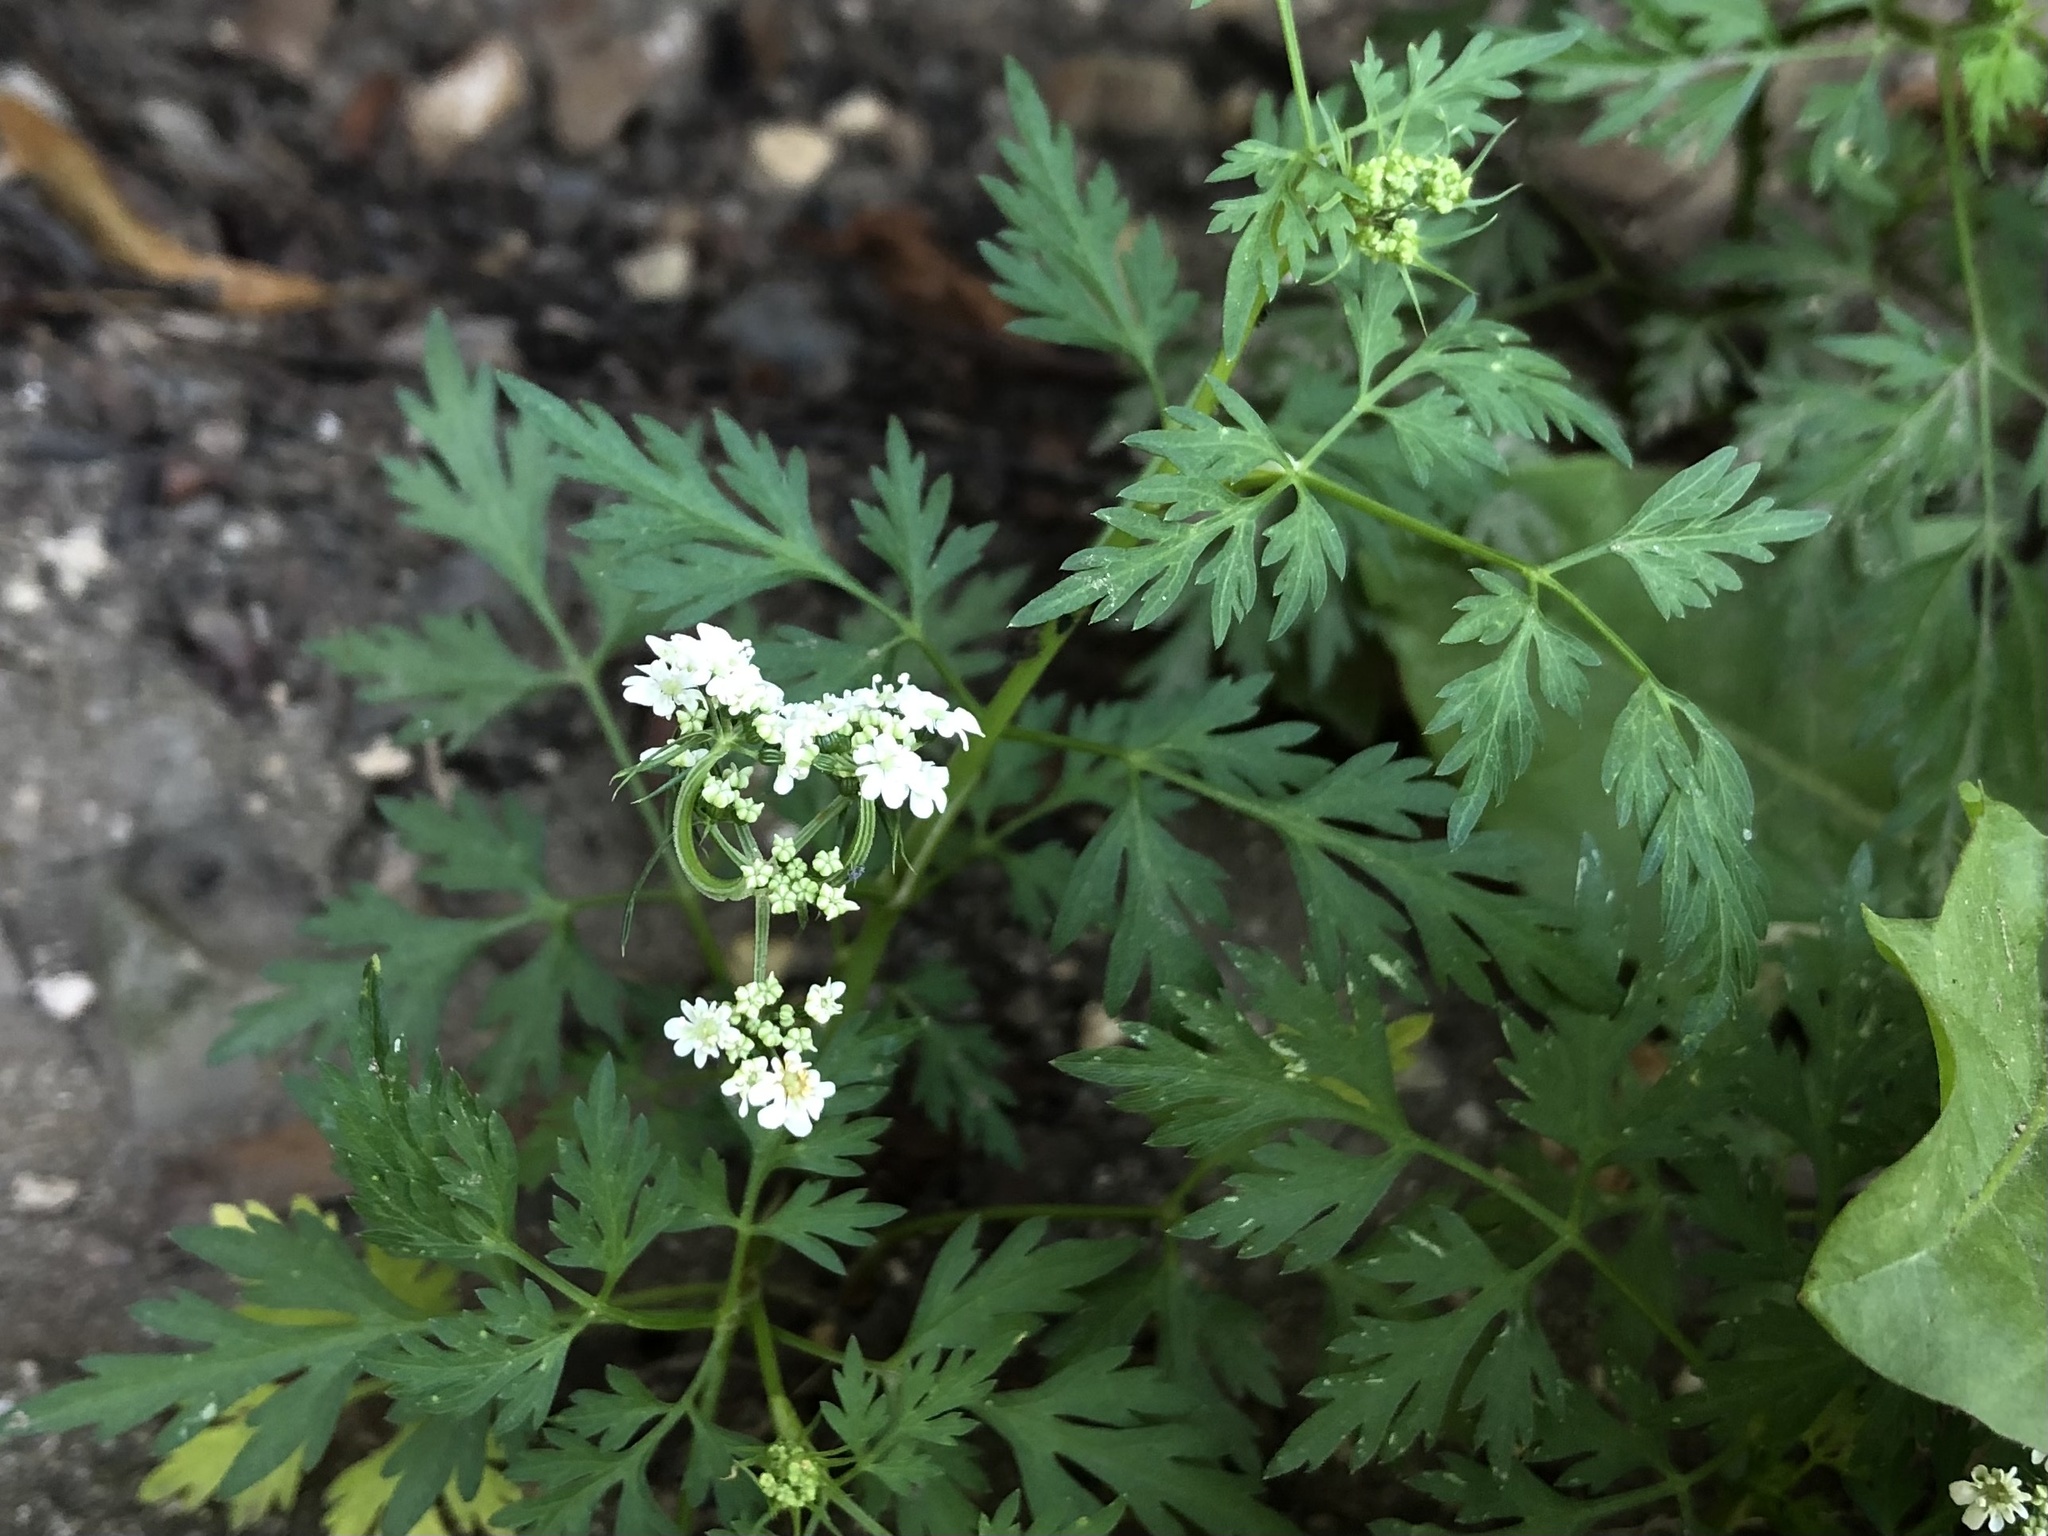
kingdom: Plantae
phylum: Tracheophyta
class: Magnoliopsida
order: Apiales
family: Apiaceae
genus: Aethusa
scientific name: Aethusa cynapium
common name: Fool's parsley
